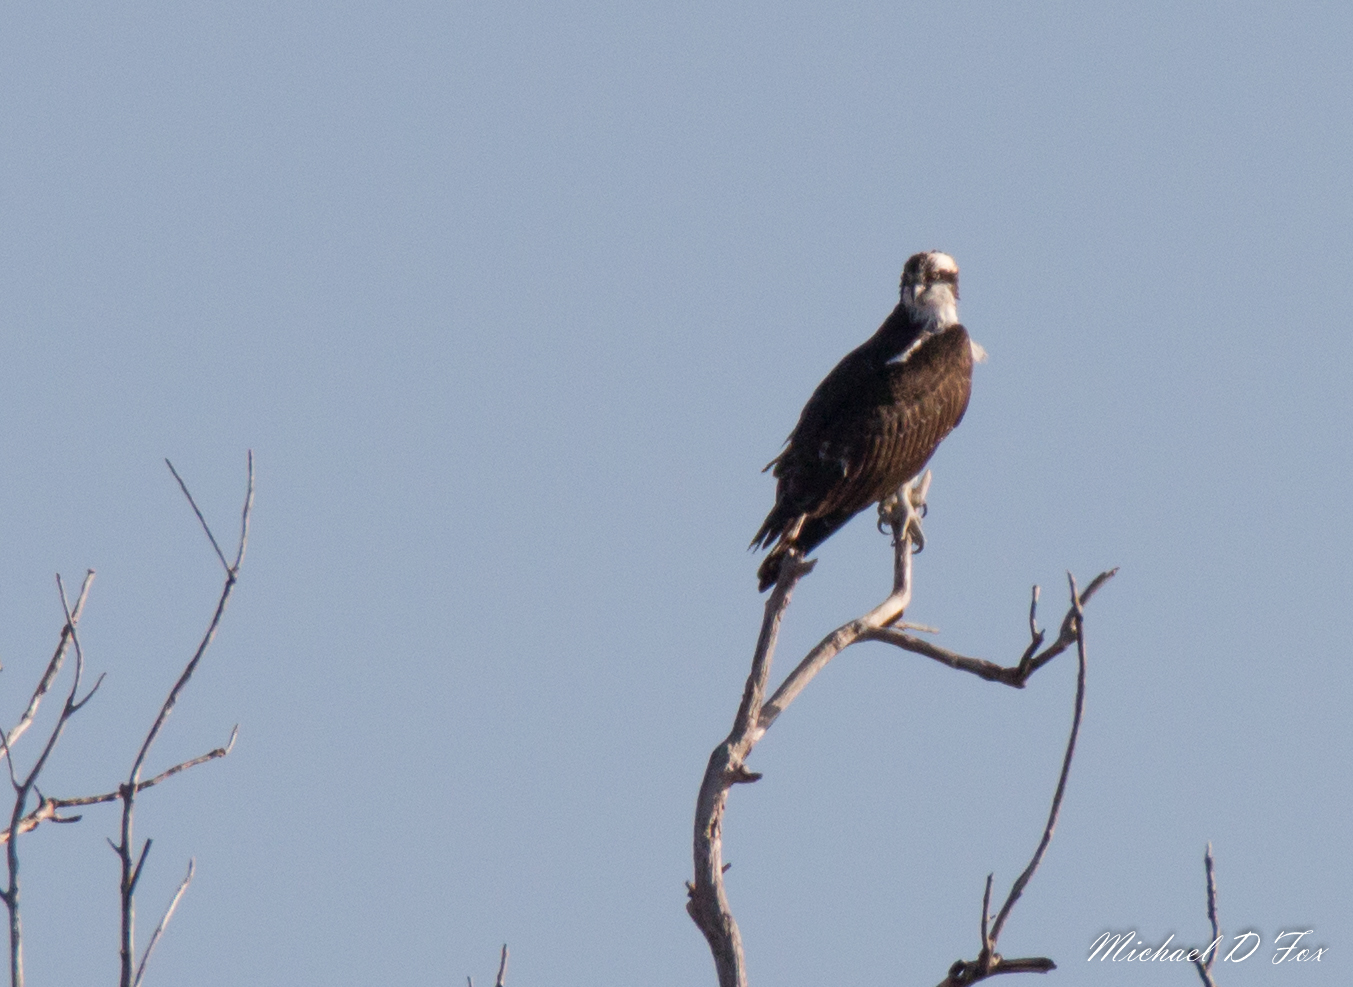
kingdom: Animalia
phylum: Chordata
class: Aves
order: Accipitriformes
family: Pandionidae
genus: Pandion
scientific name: Pandion haliaetus
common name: Osprey
